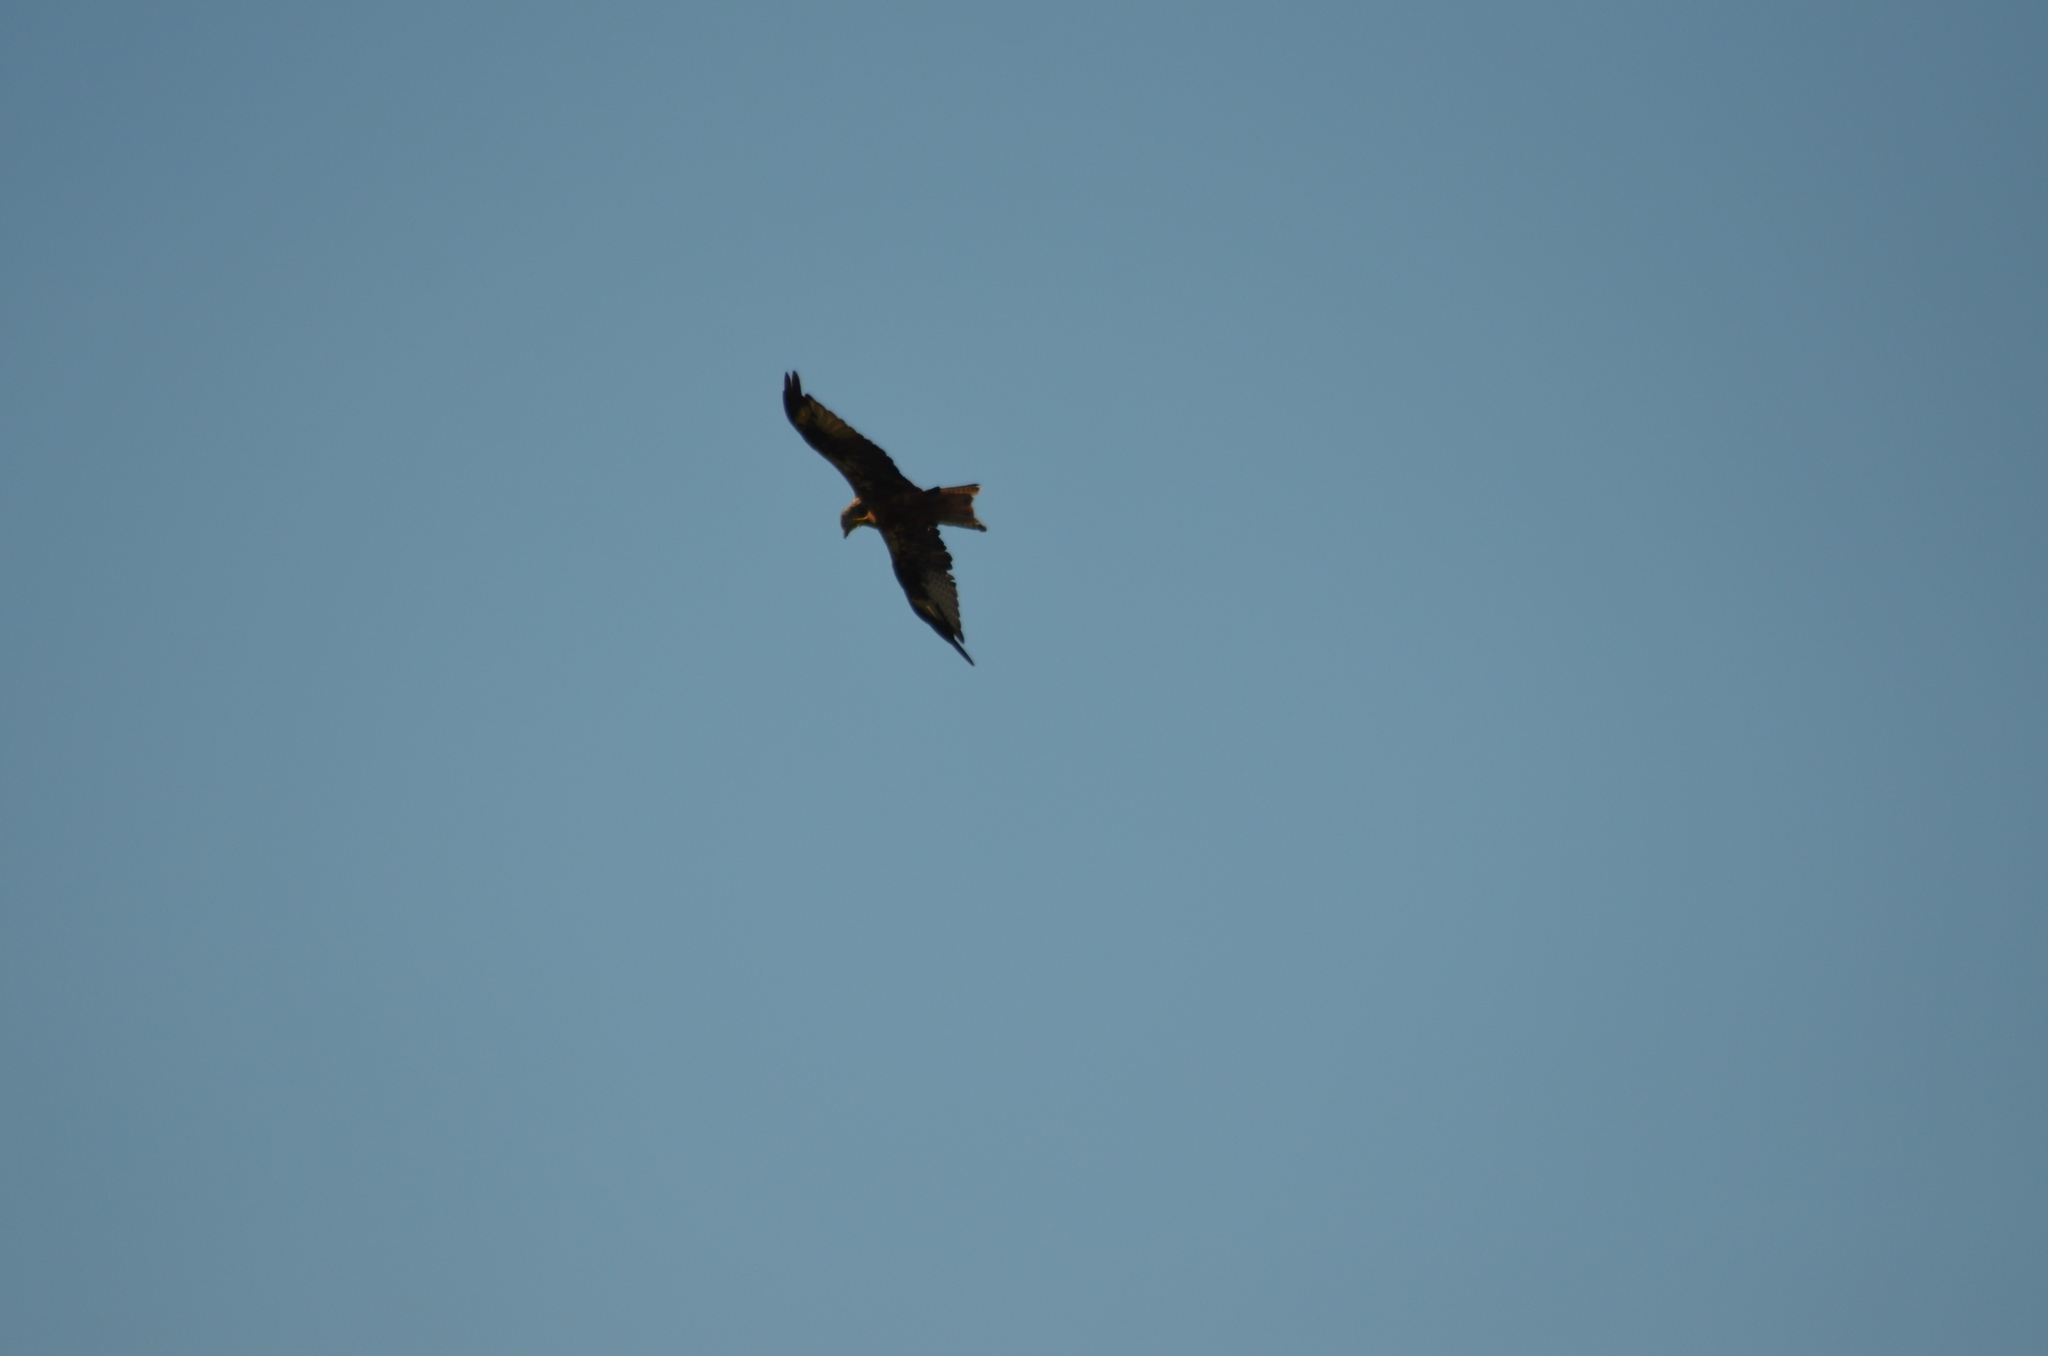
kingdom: Animalia
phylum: Chordata
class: Aves
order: Accipitriformes
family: Accipitridae
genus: Milvus
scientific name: Milvus milvus
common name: Red kite
